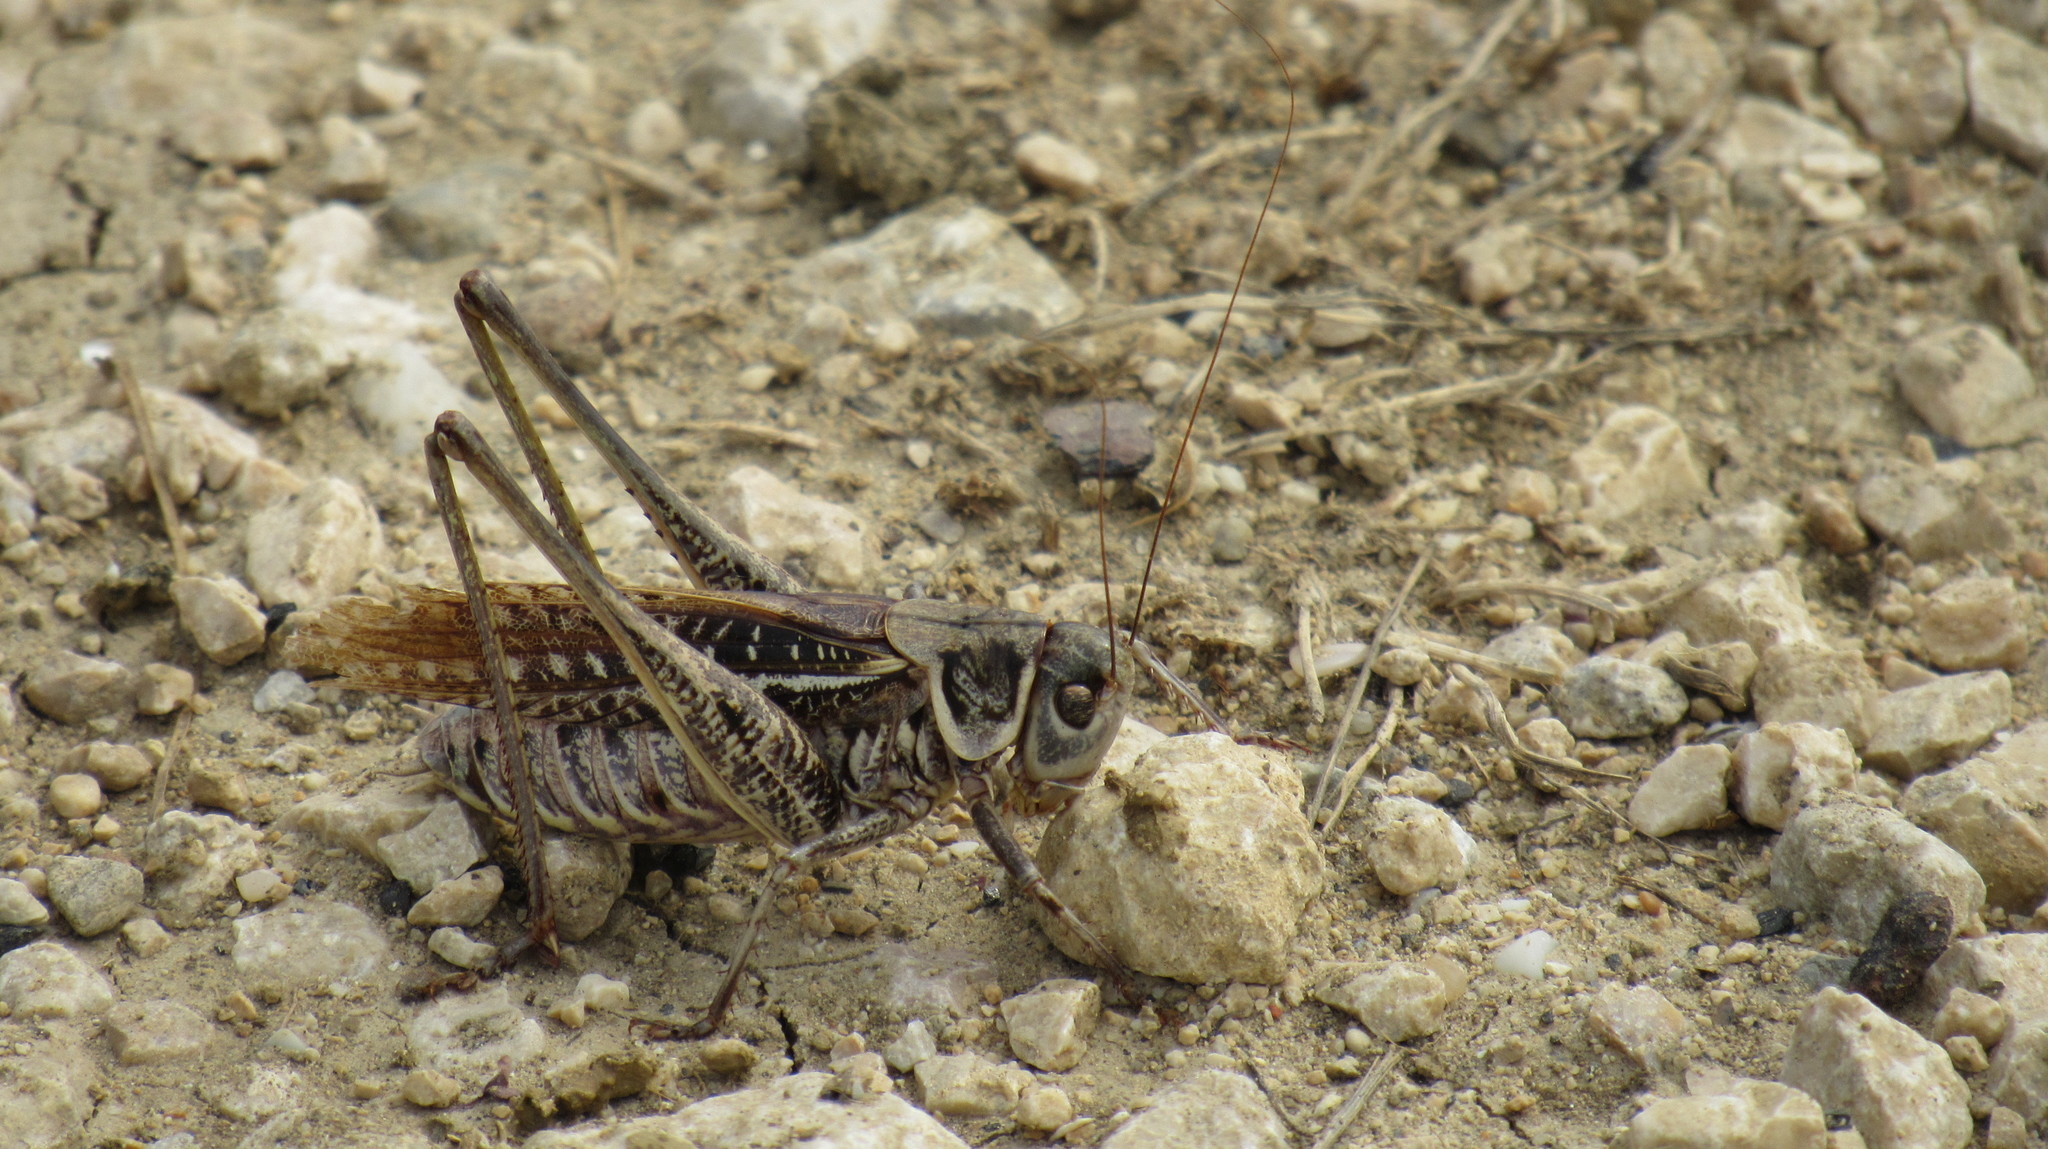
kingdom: Animalia
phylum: Arthropoda
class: Insecta
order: Orthoptera
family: Tettigoniidae
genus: Decticus
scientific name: Decticus albifrons
